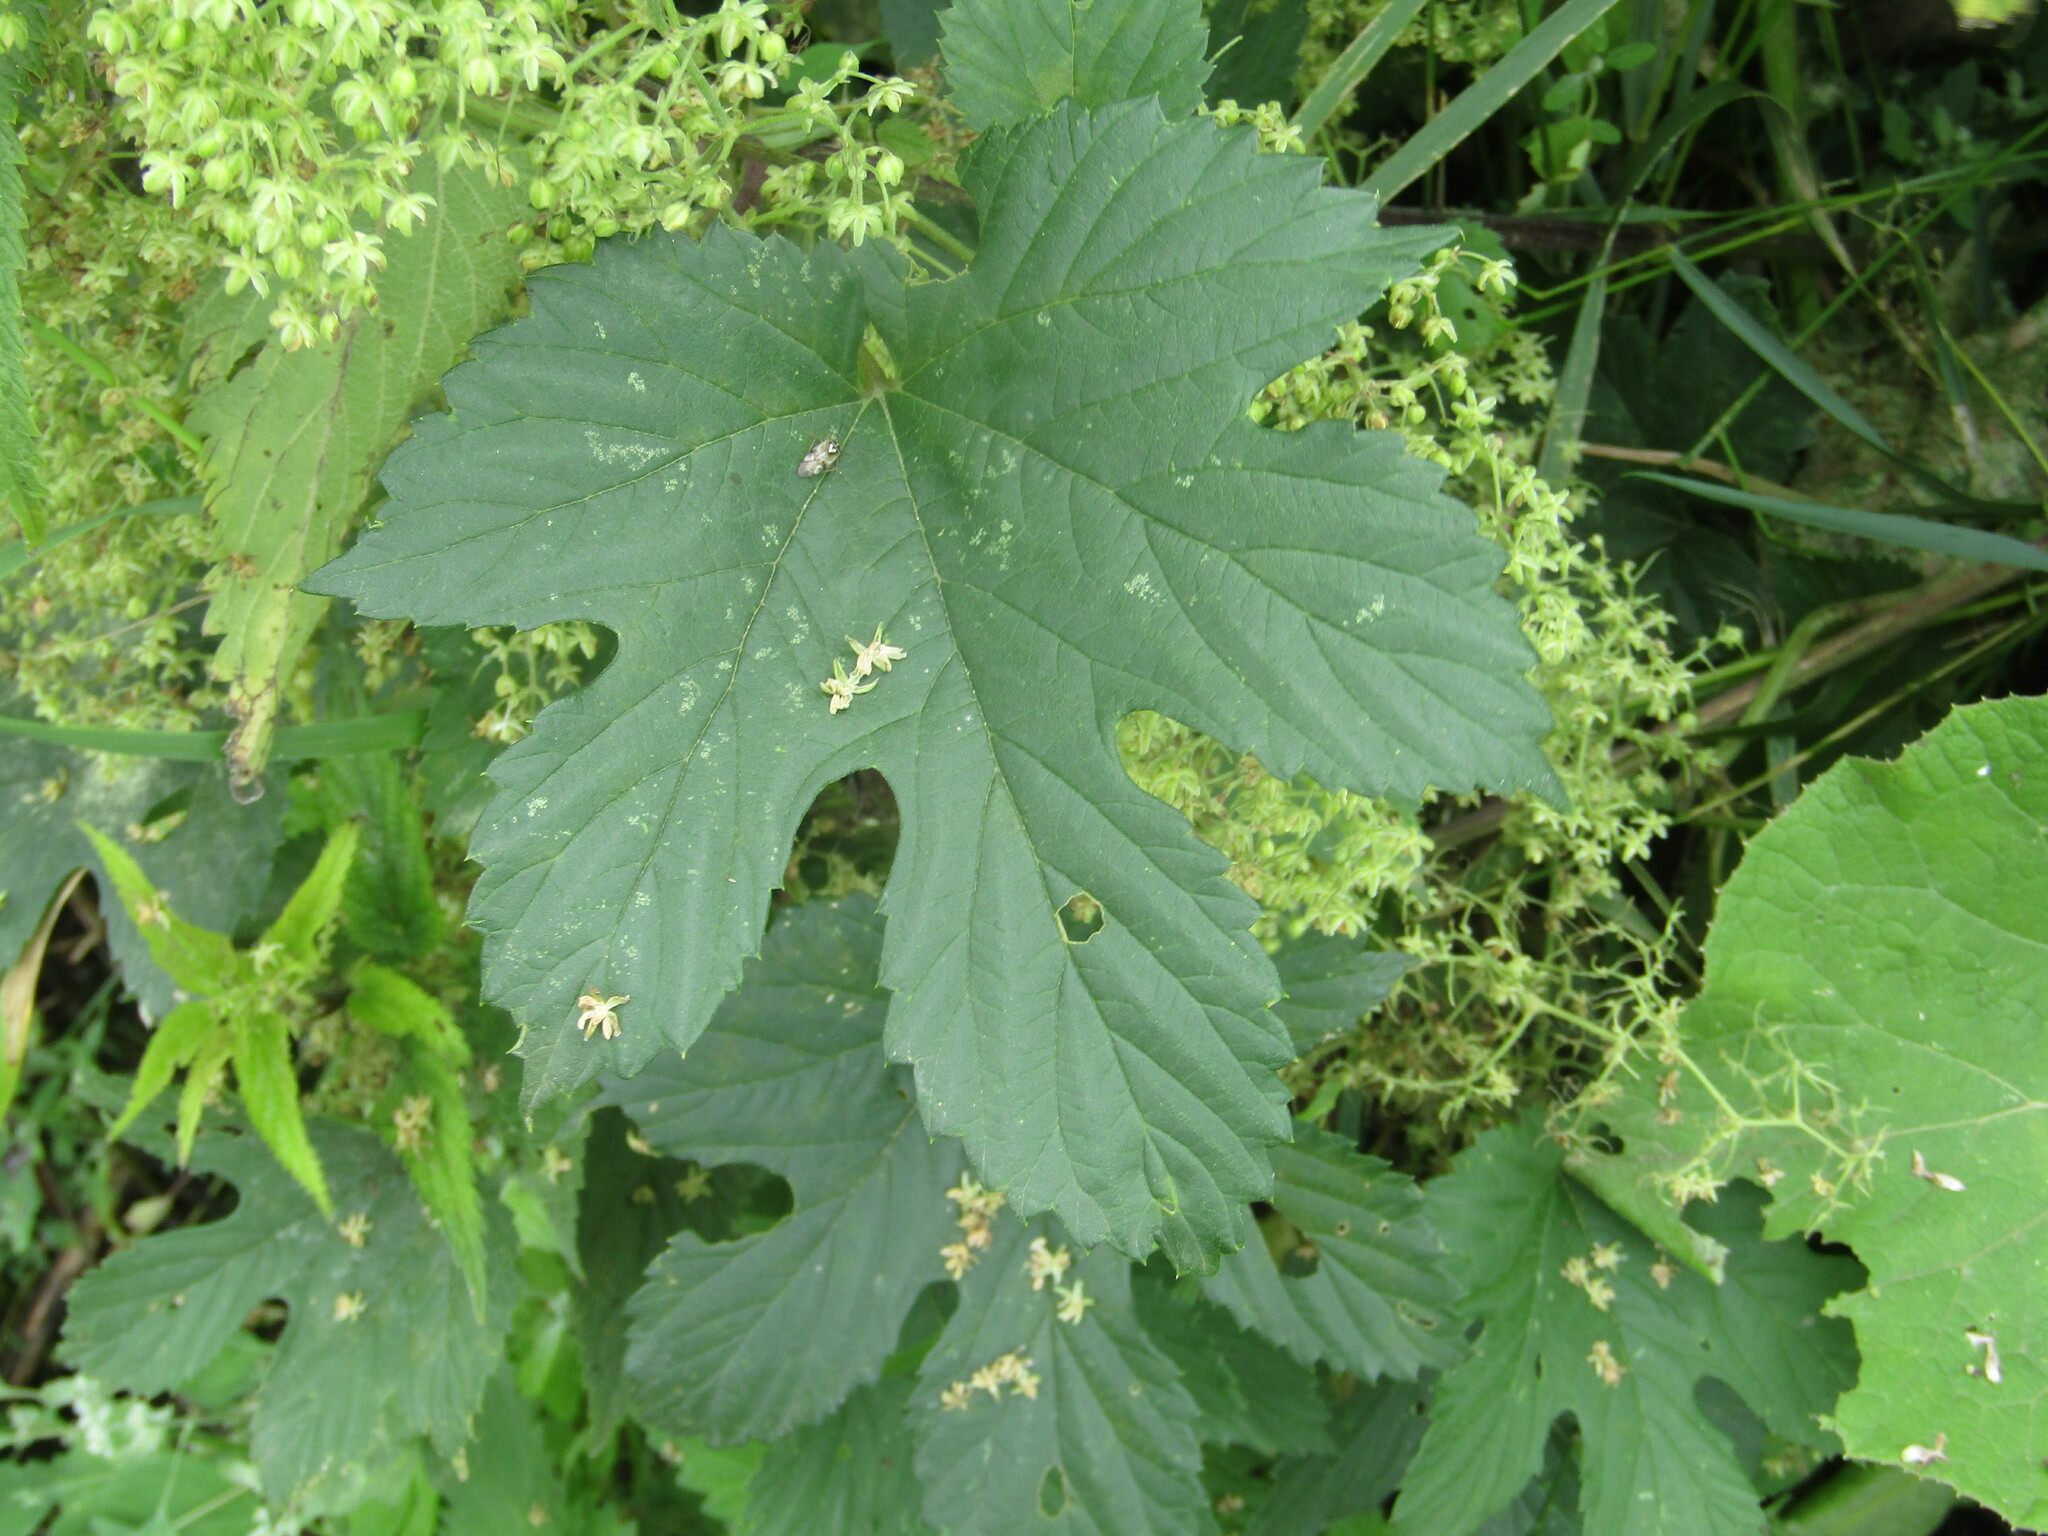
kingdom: Plantae
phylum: Tracheophyta
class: Magnoliopsida
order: Rosales
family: Cannabaceae
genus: Humulus
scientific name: Humulus lupulus
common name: Hop
